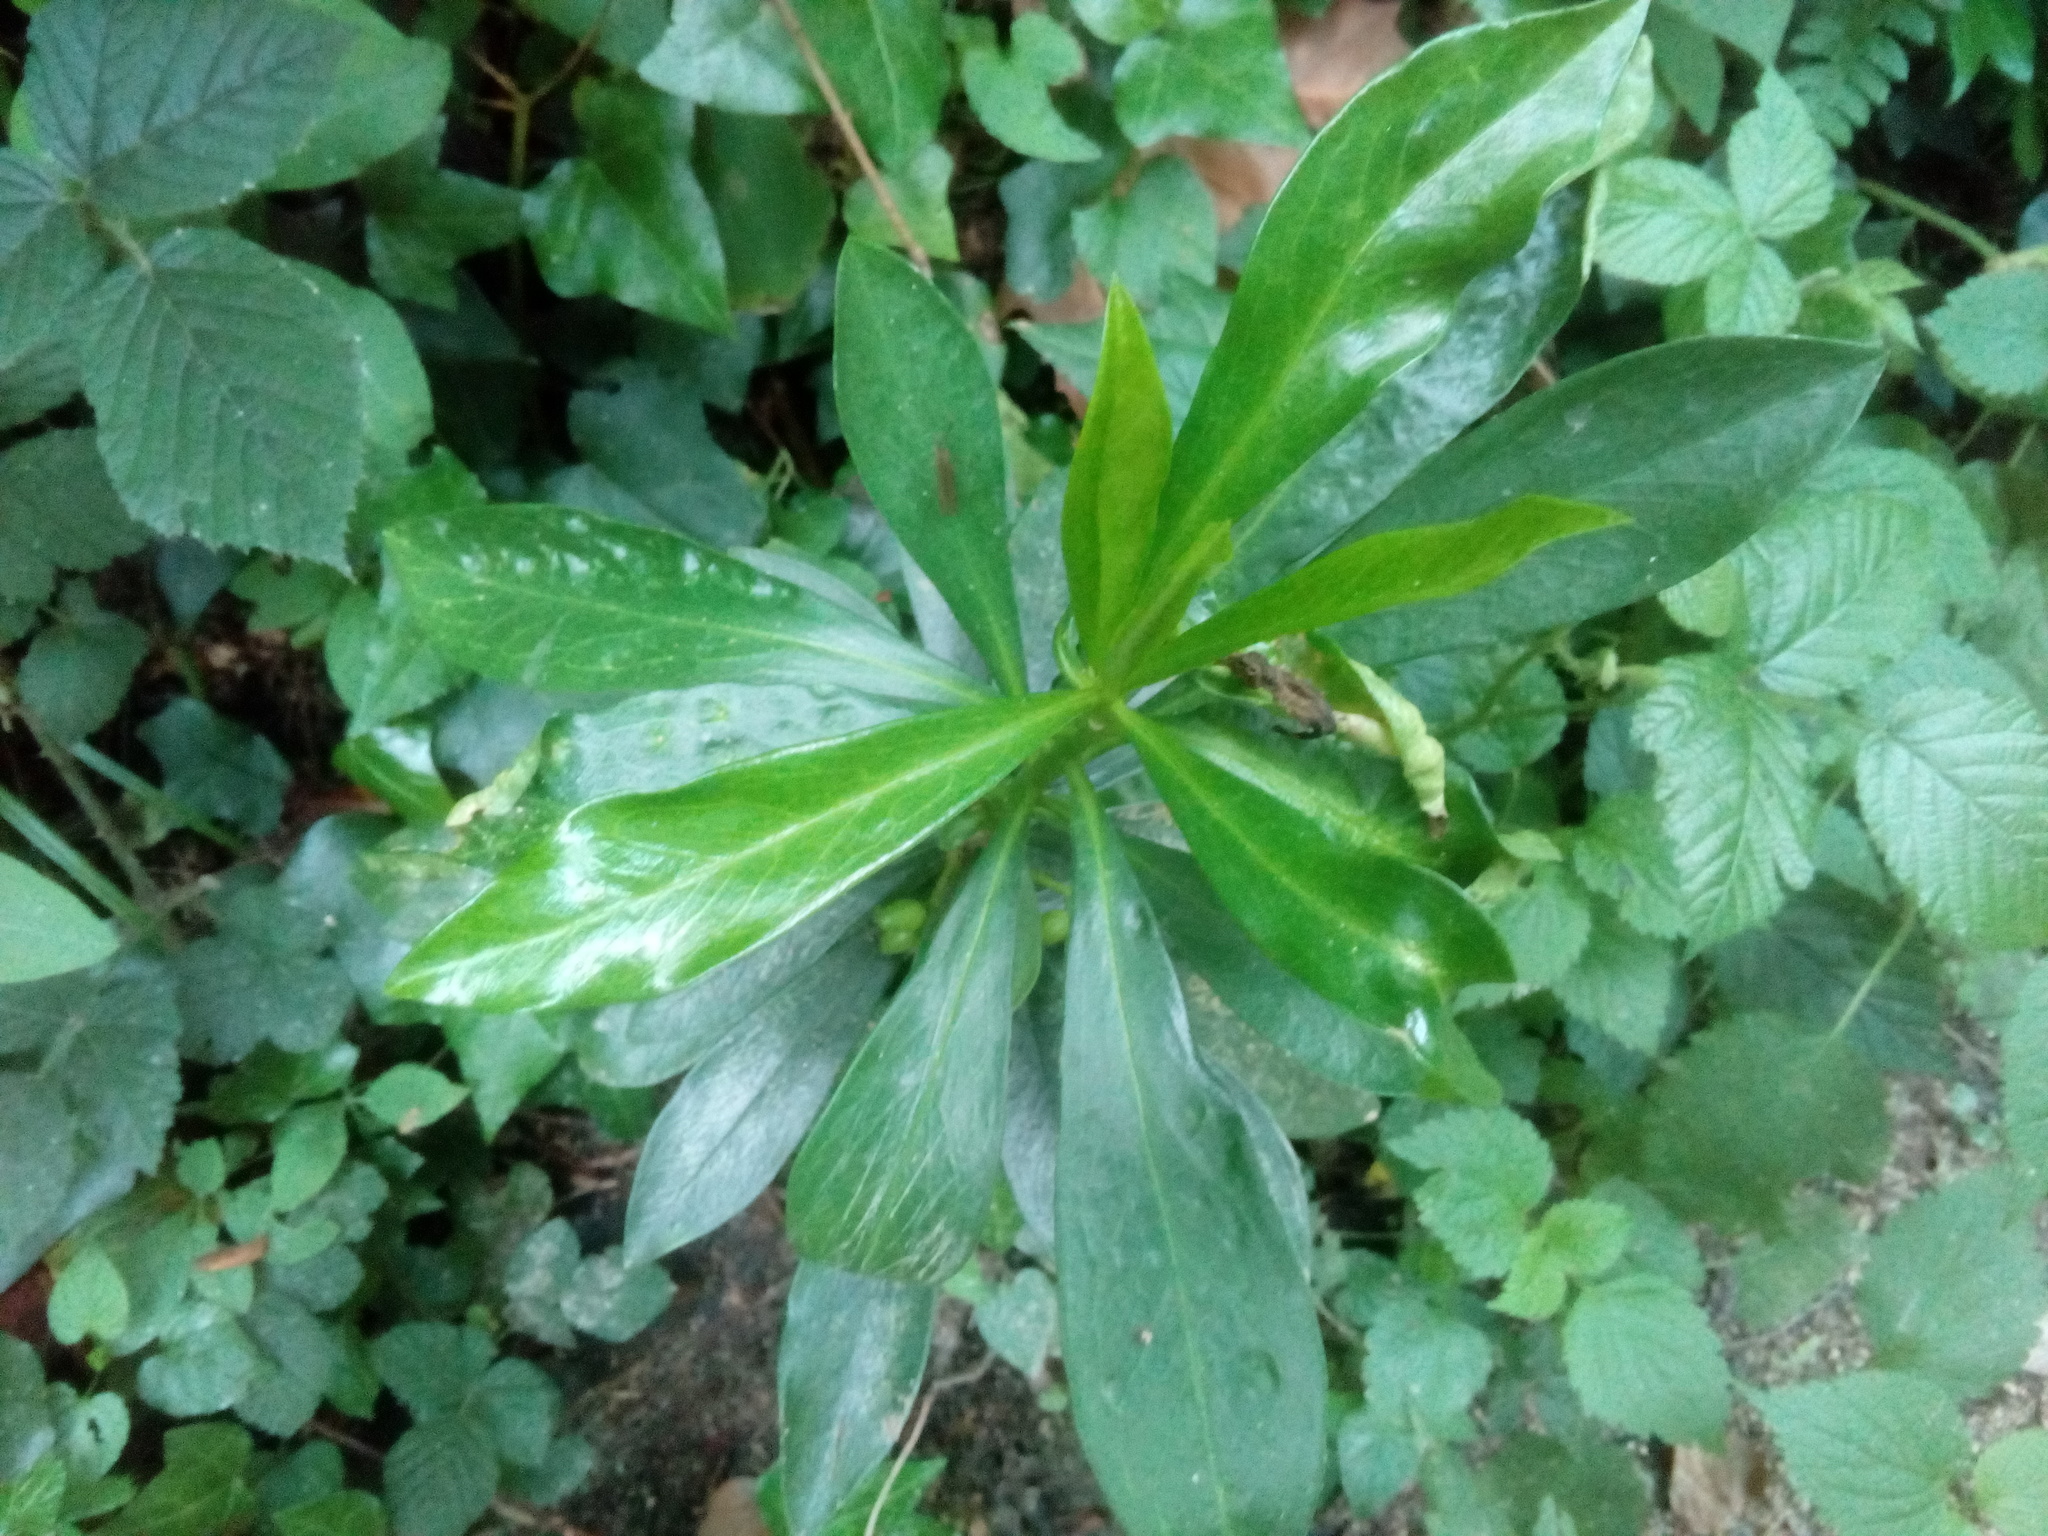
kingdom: Plantae
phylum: Tracheophyta
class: Magnoliopsida
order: Malvales
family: Thymelaeaceae
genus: Daphne
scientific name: Daphne laureola
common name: Spurge-laurel
